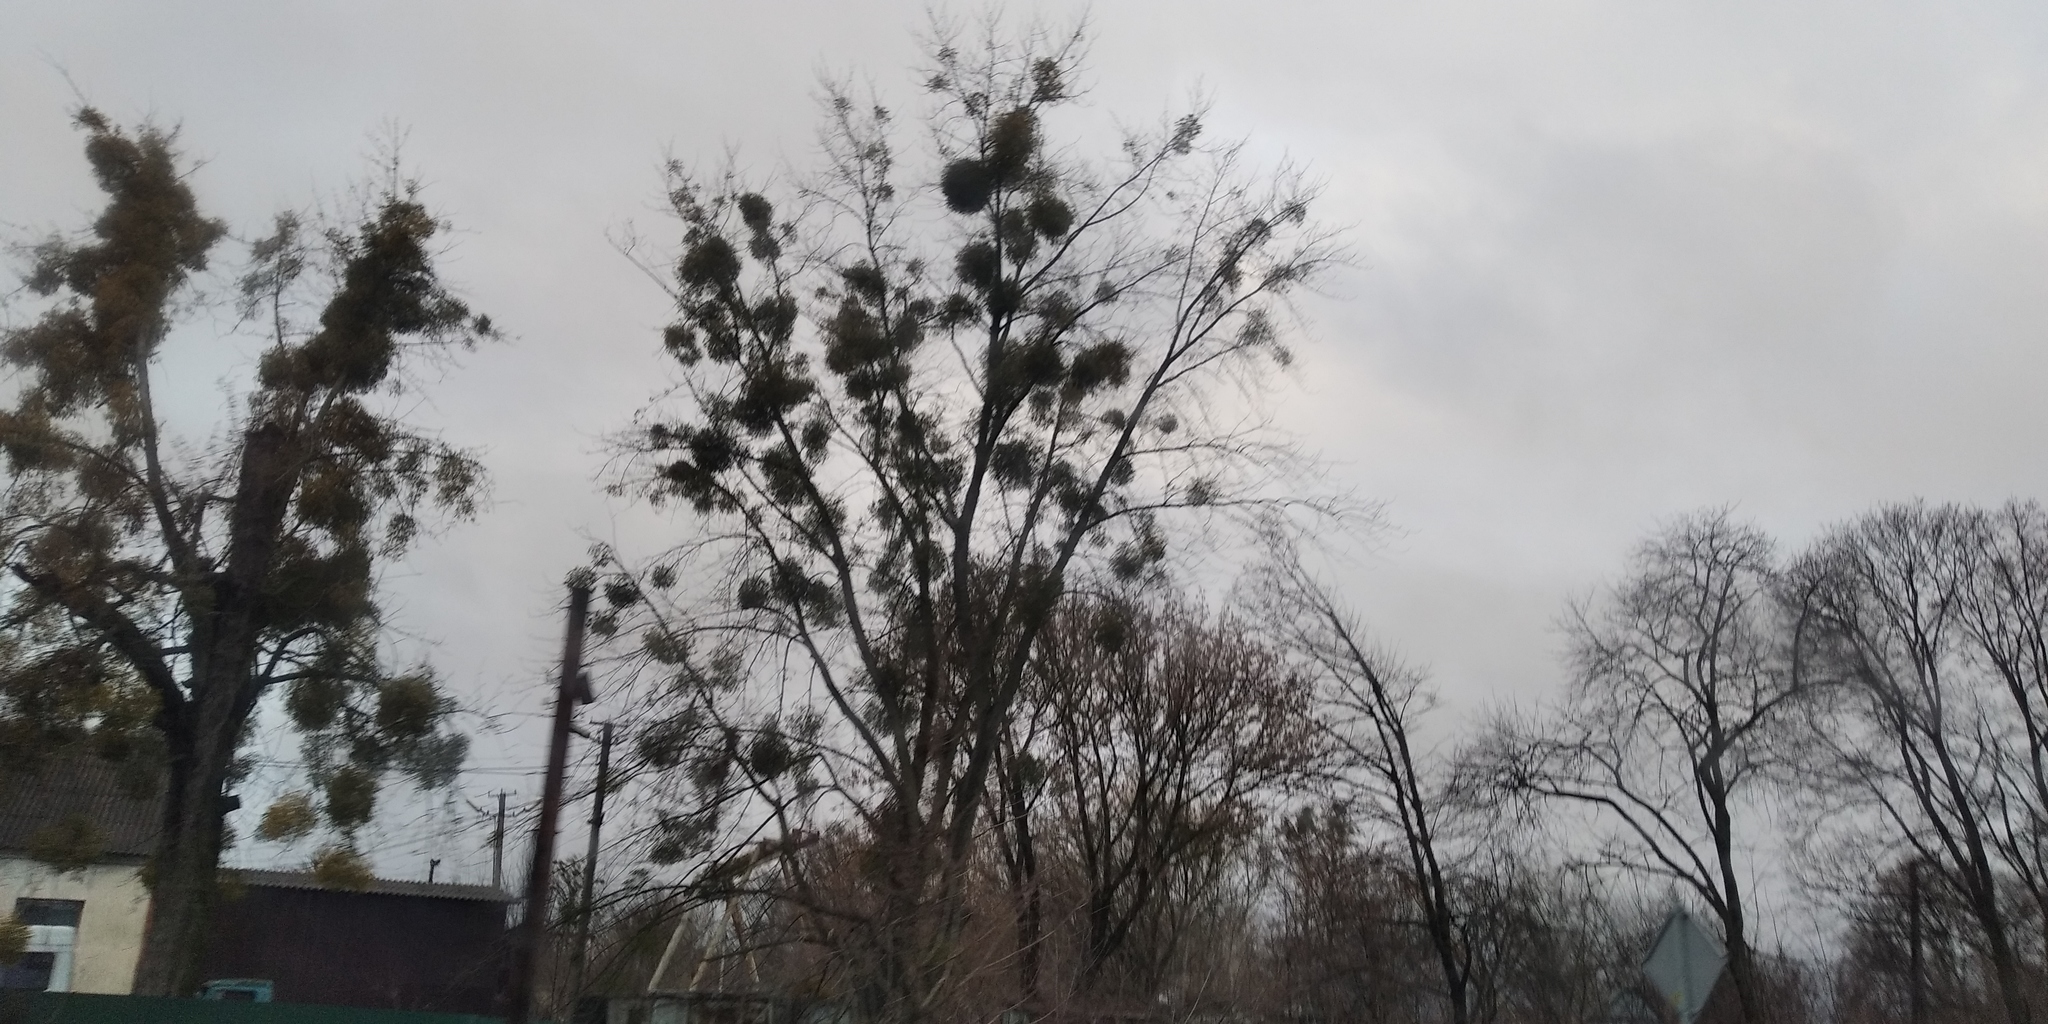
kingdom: Plantae
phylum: Tracheophyta
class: Magnoliopsida
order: Santalales
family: Viscaceae
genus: Viscum
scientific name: Viscum album
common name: Mistletoe
